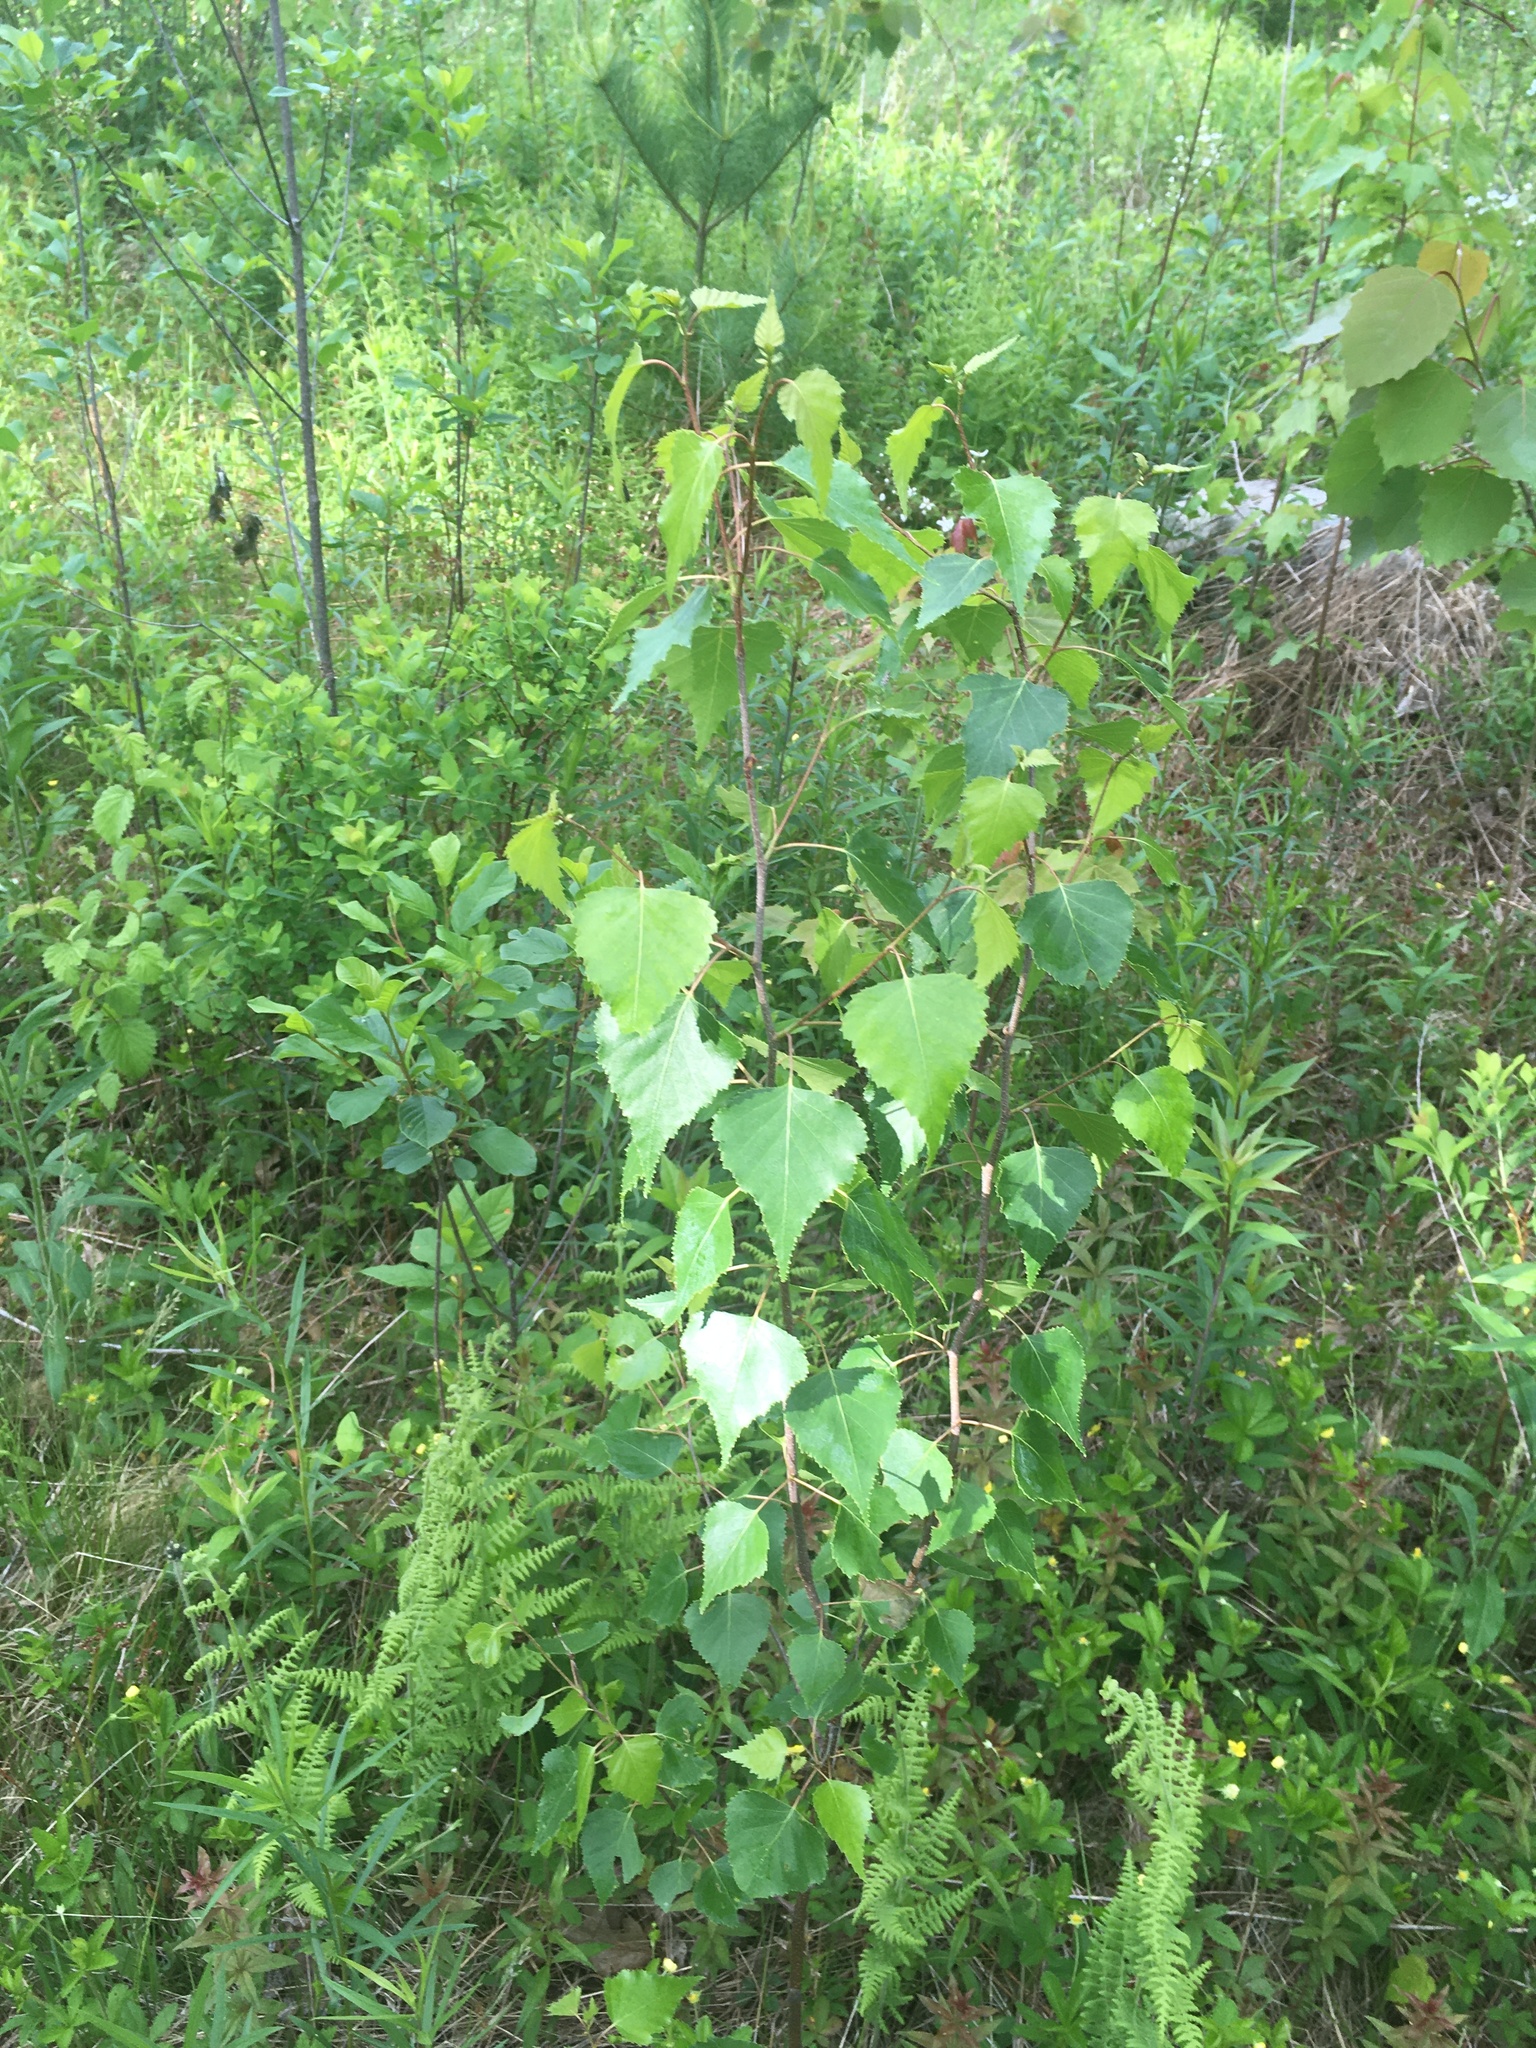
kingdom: Plantae
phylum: Tracheophyta
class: Magnoliopsida
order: Fagales
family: Betulaceae
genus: Betula
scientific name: Betula populifolia
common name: Fire birch
